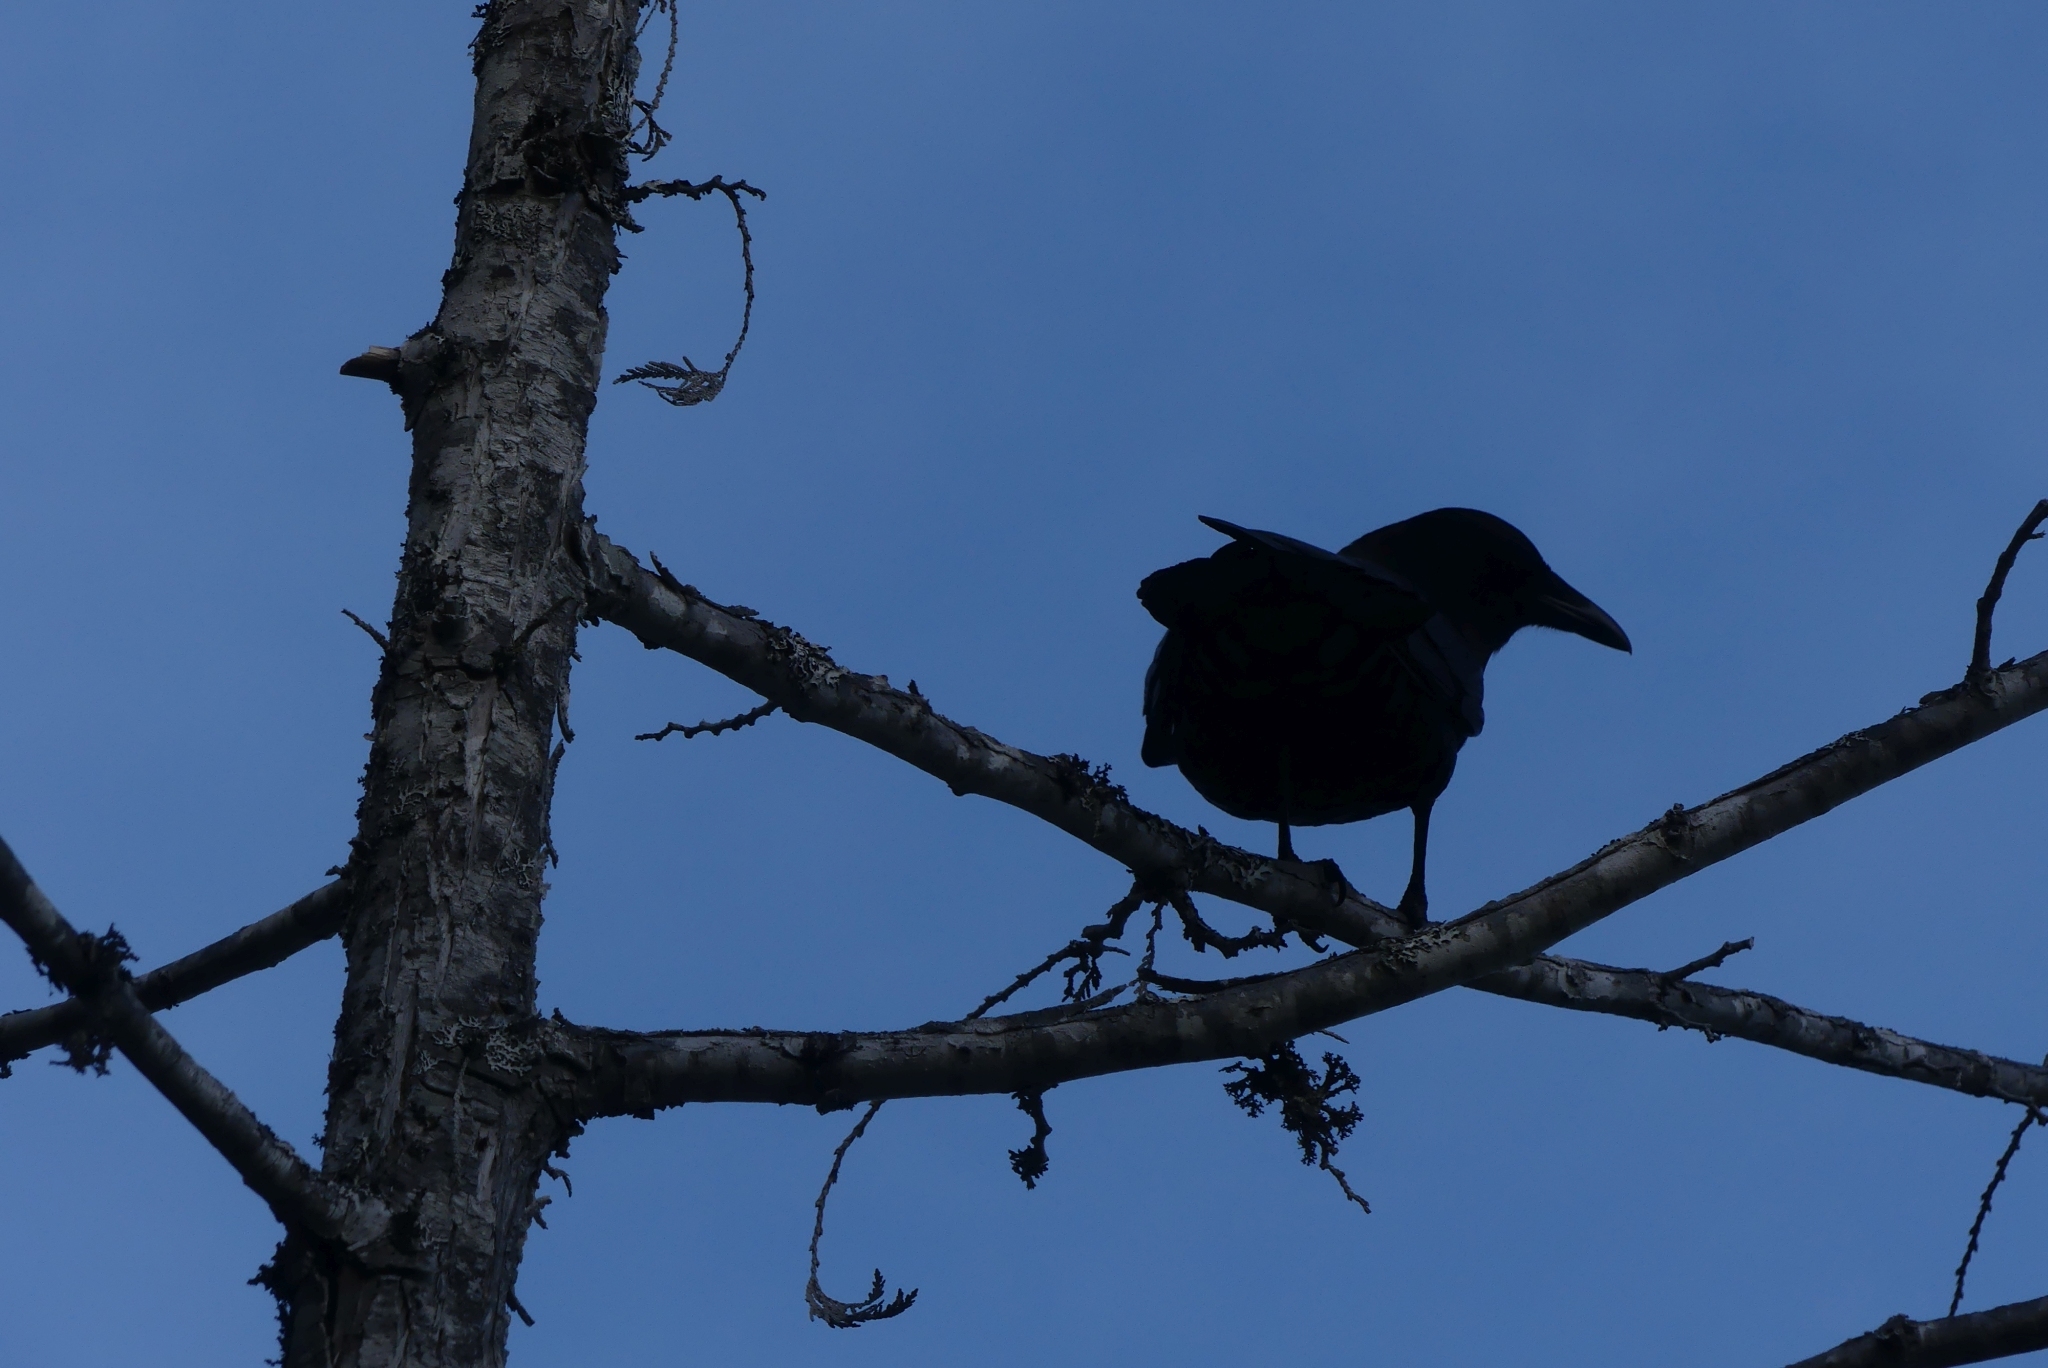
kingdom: Animalia
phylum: Chordata
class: Aves
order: Passeriformes
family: Corvidae
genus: Corvus
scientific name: Corvus brachyrhynchos
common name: American crow
